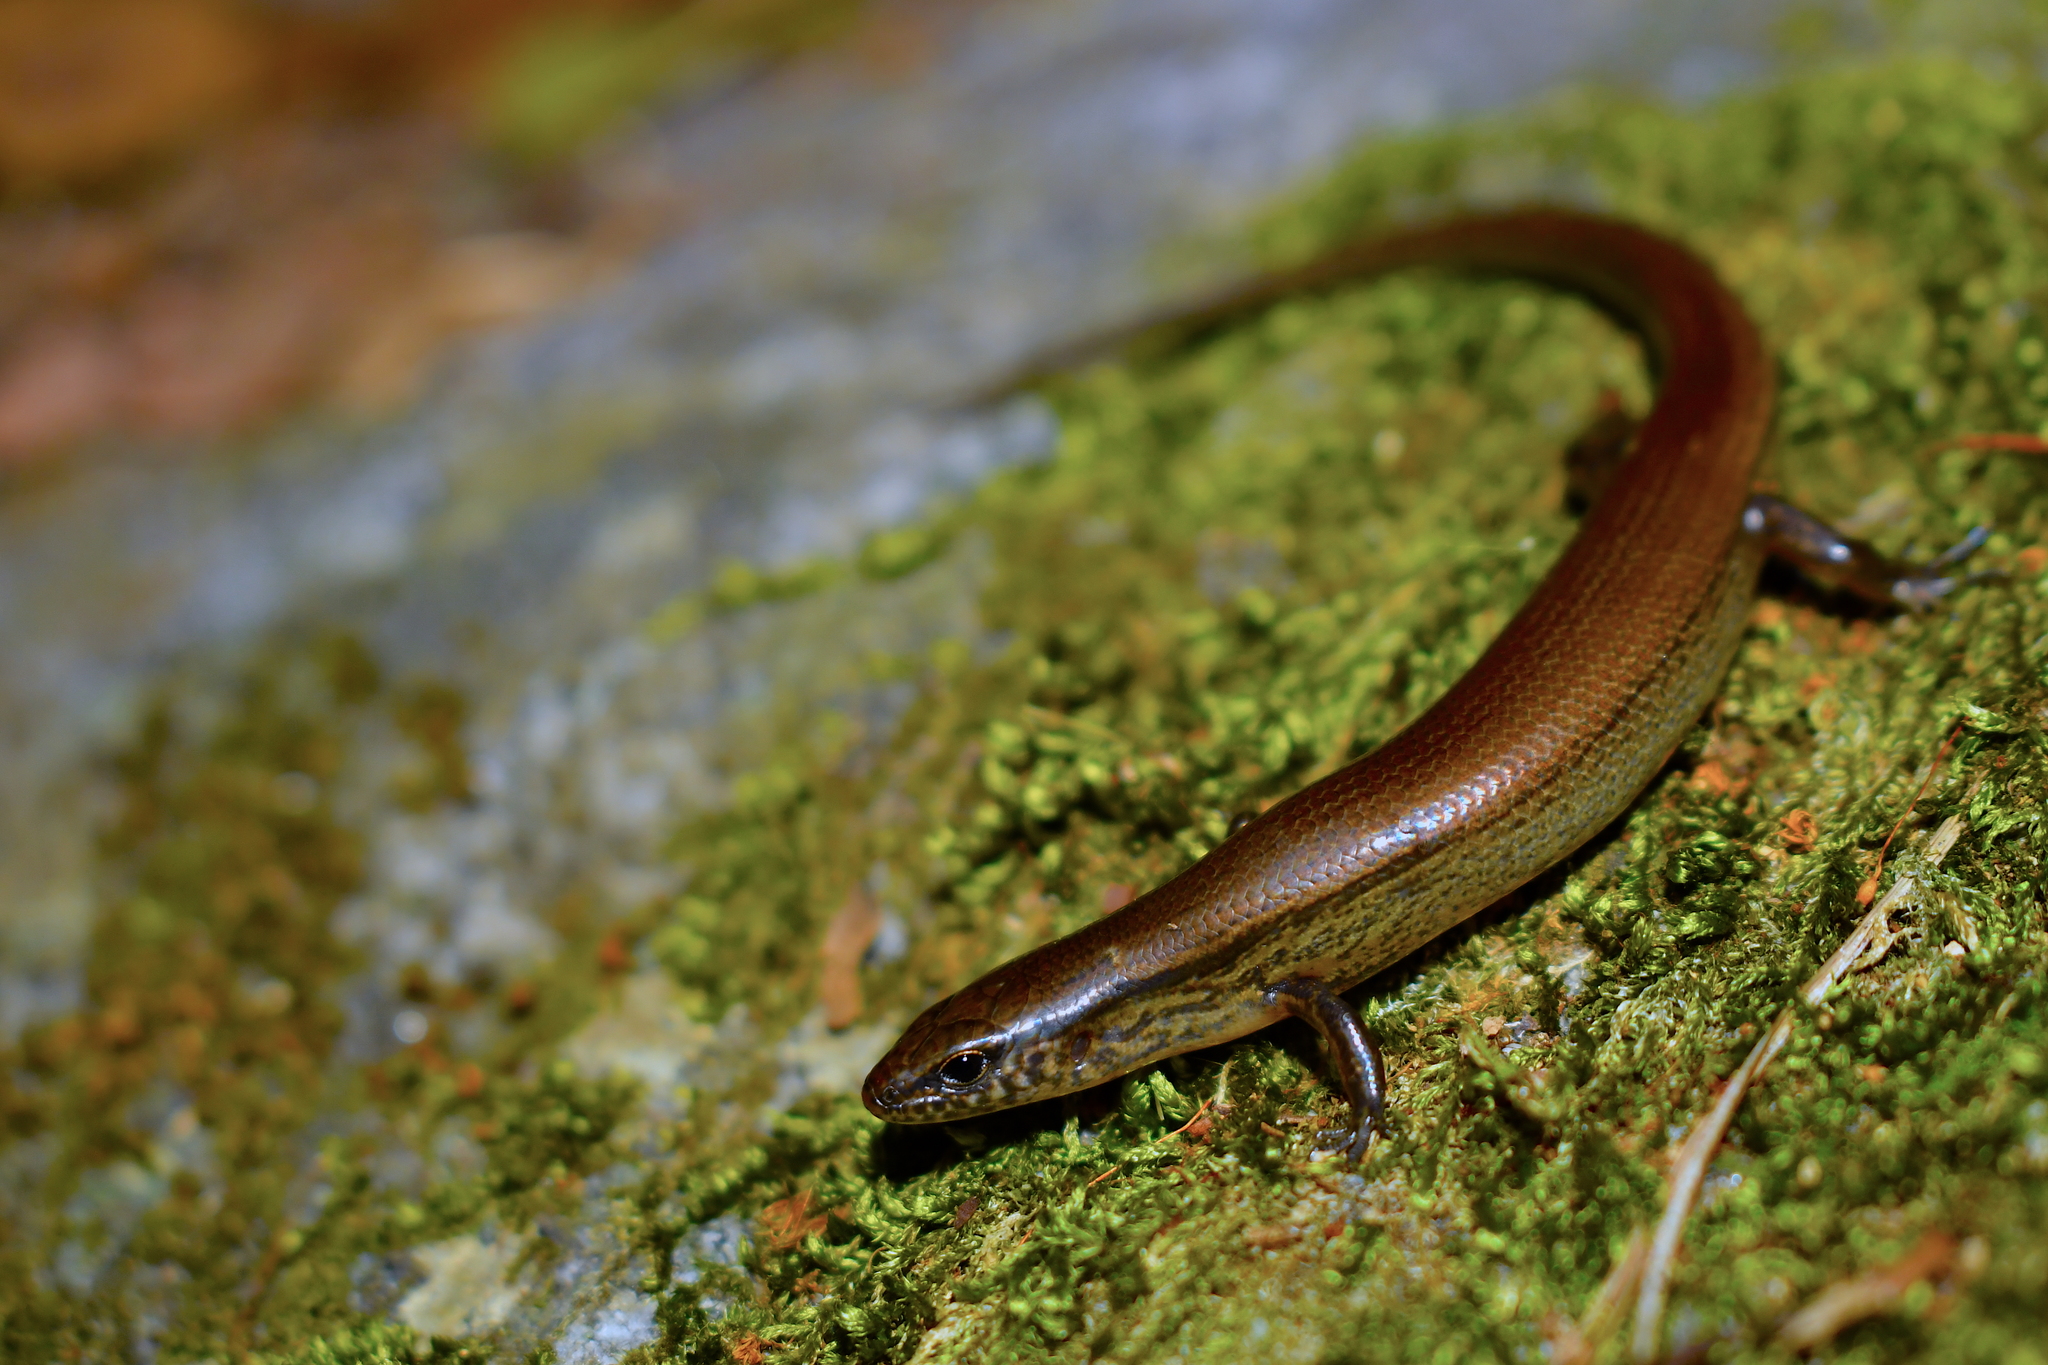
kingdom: Animalia
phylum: Chordata
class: Squamata
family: Scincidae
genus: Scincella
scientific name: Scincella assata
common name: Ground skink
